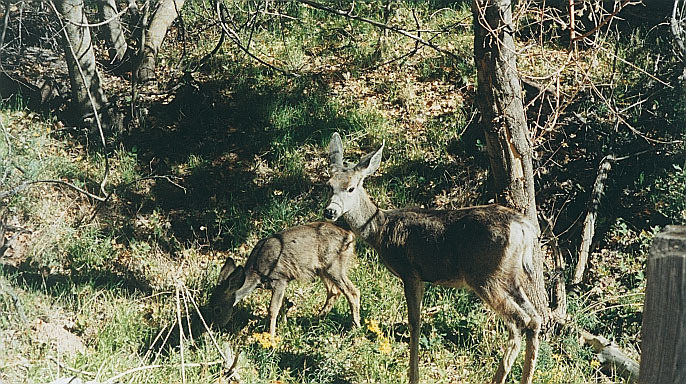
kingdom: Animalia
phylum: Chordata
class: Mammalia
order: Artiodactyla
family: Cervidae
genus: Odocoileus
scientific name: Odocoileus hemionus
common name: Mule deer
